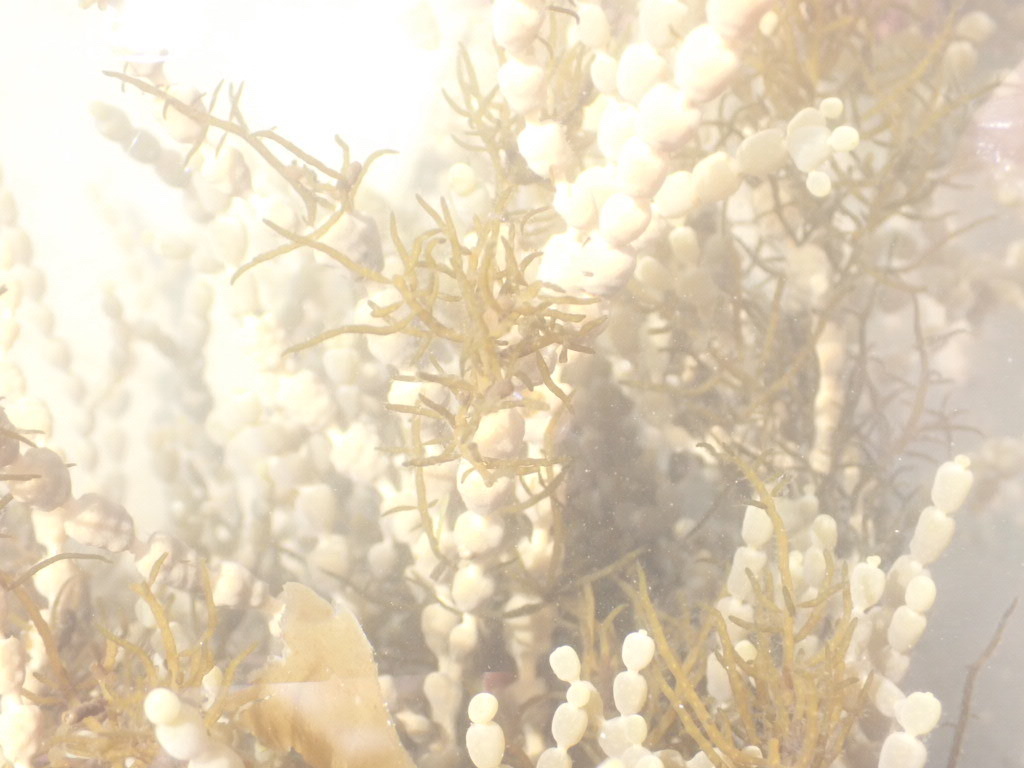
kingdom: Chromista
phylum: Ochrophyta
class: Phaeophyceae
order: Fucales
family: Hormosiraceae
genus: Hormosira
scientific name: Hormosira banksii
